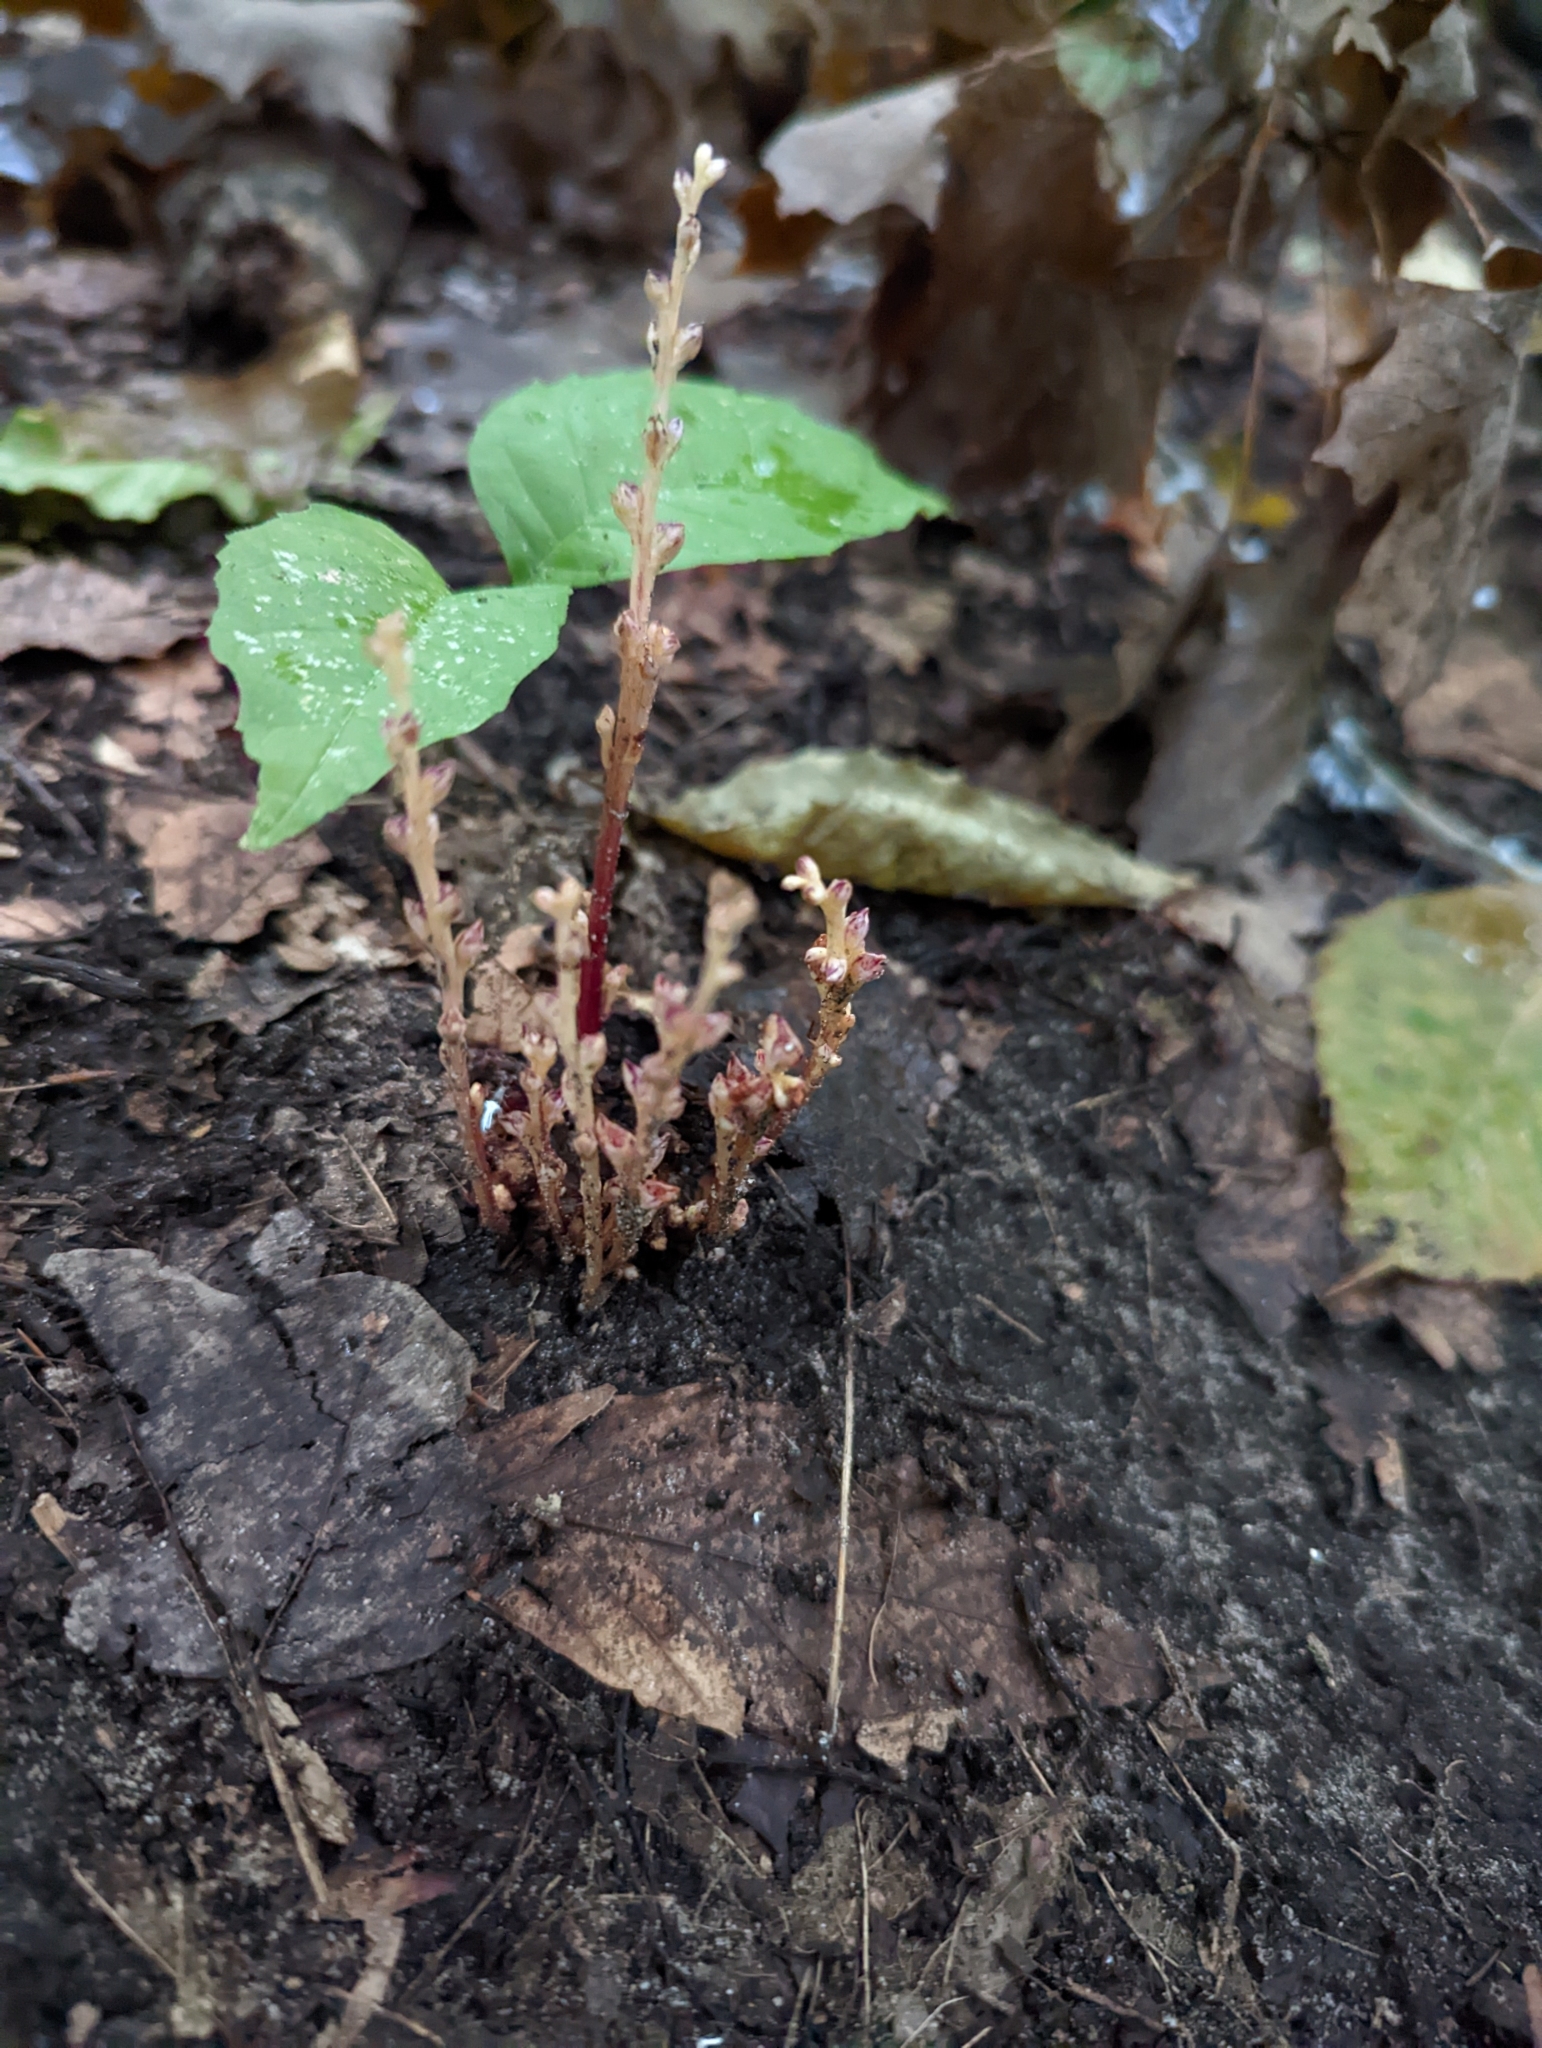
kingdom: Plantae
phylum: Tracheophyta
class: Magnoliopsida
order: Lamiales
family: Orobanchaceae
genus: Epifagus
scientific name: Epifagus virginiana
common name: Beechdrops
